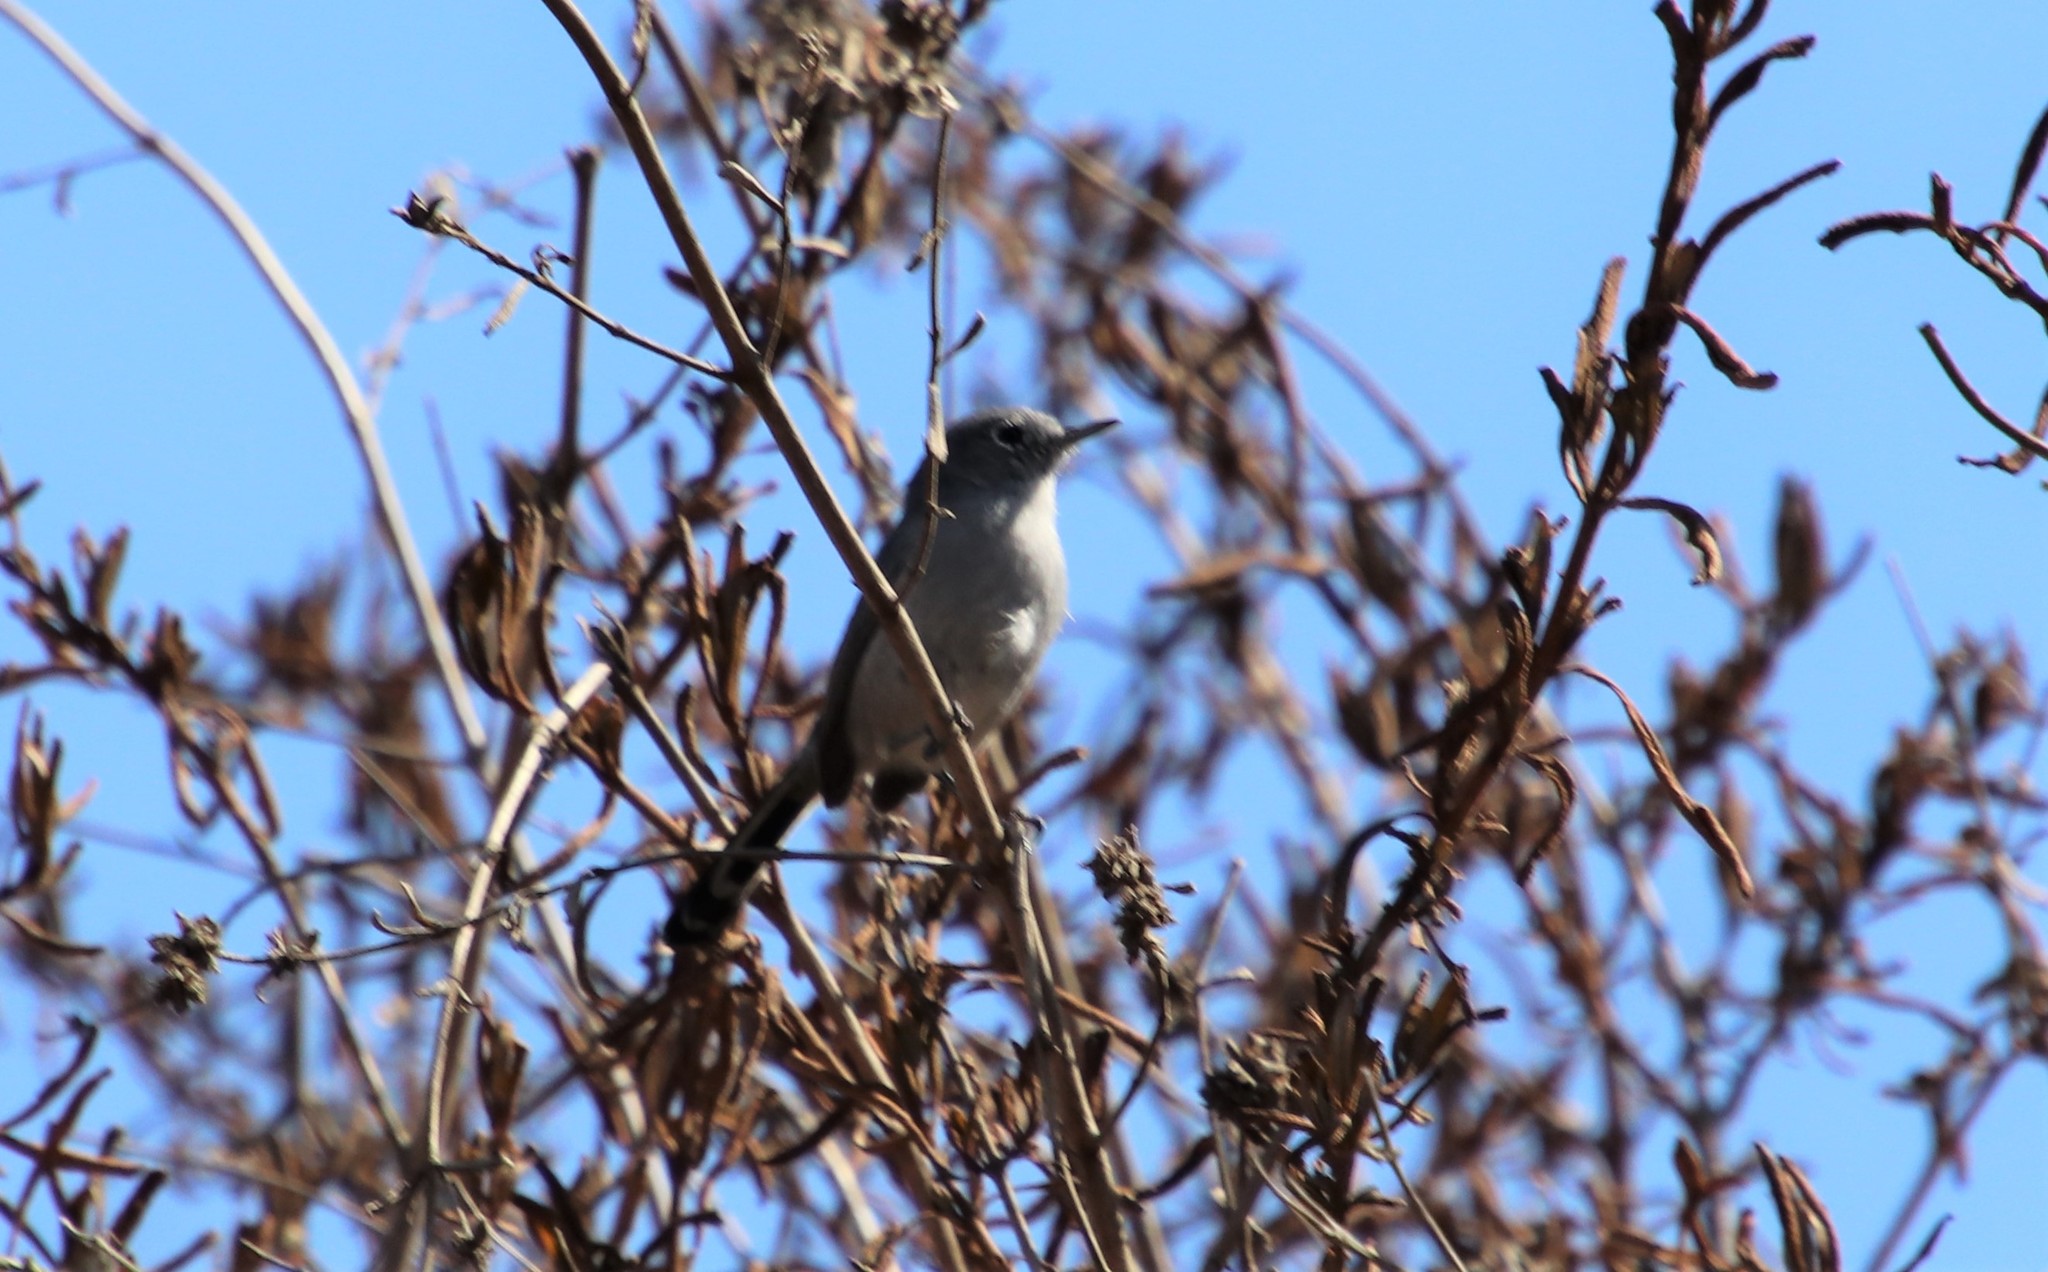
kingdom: Animalia
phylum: Chordata
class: Aves
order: Passeriformes
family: Polioptilidae
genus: Polioptila
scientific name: Polioptila californica
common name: California gnatcatcher
